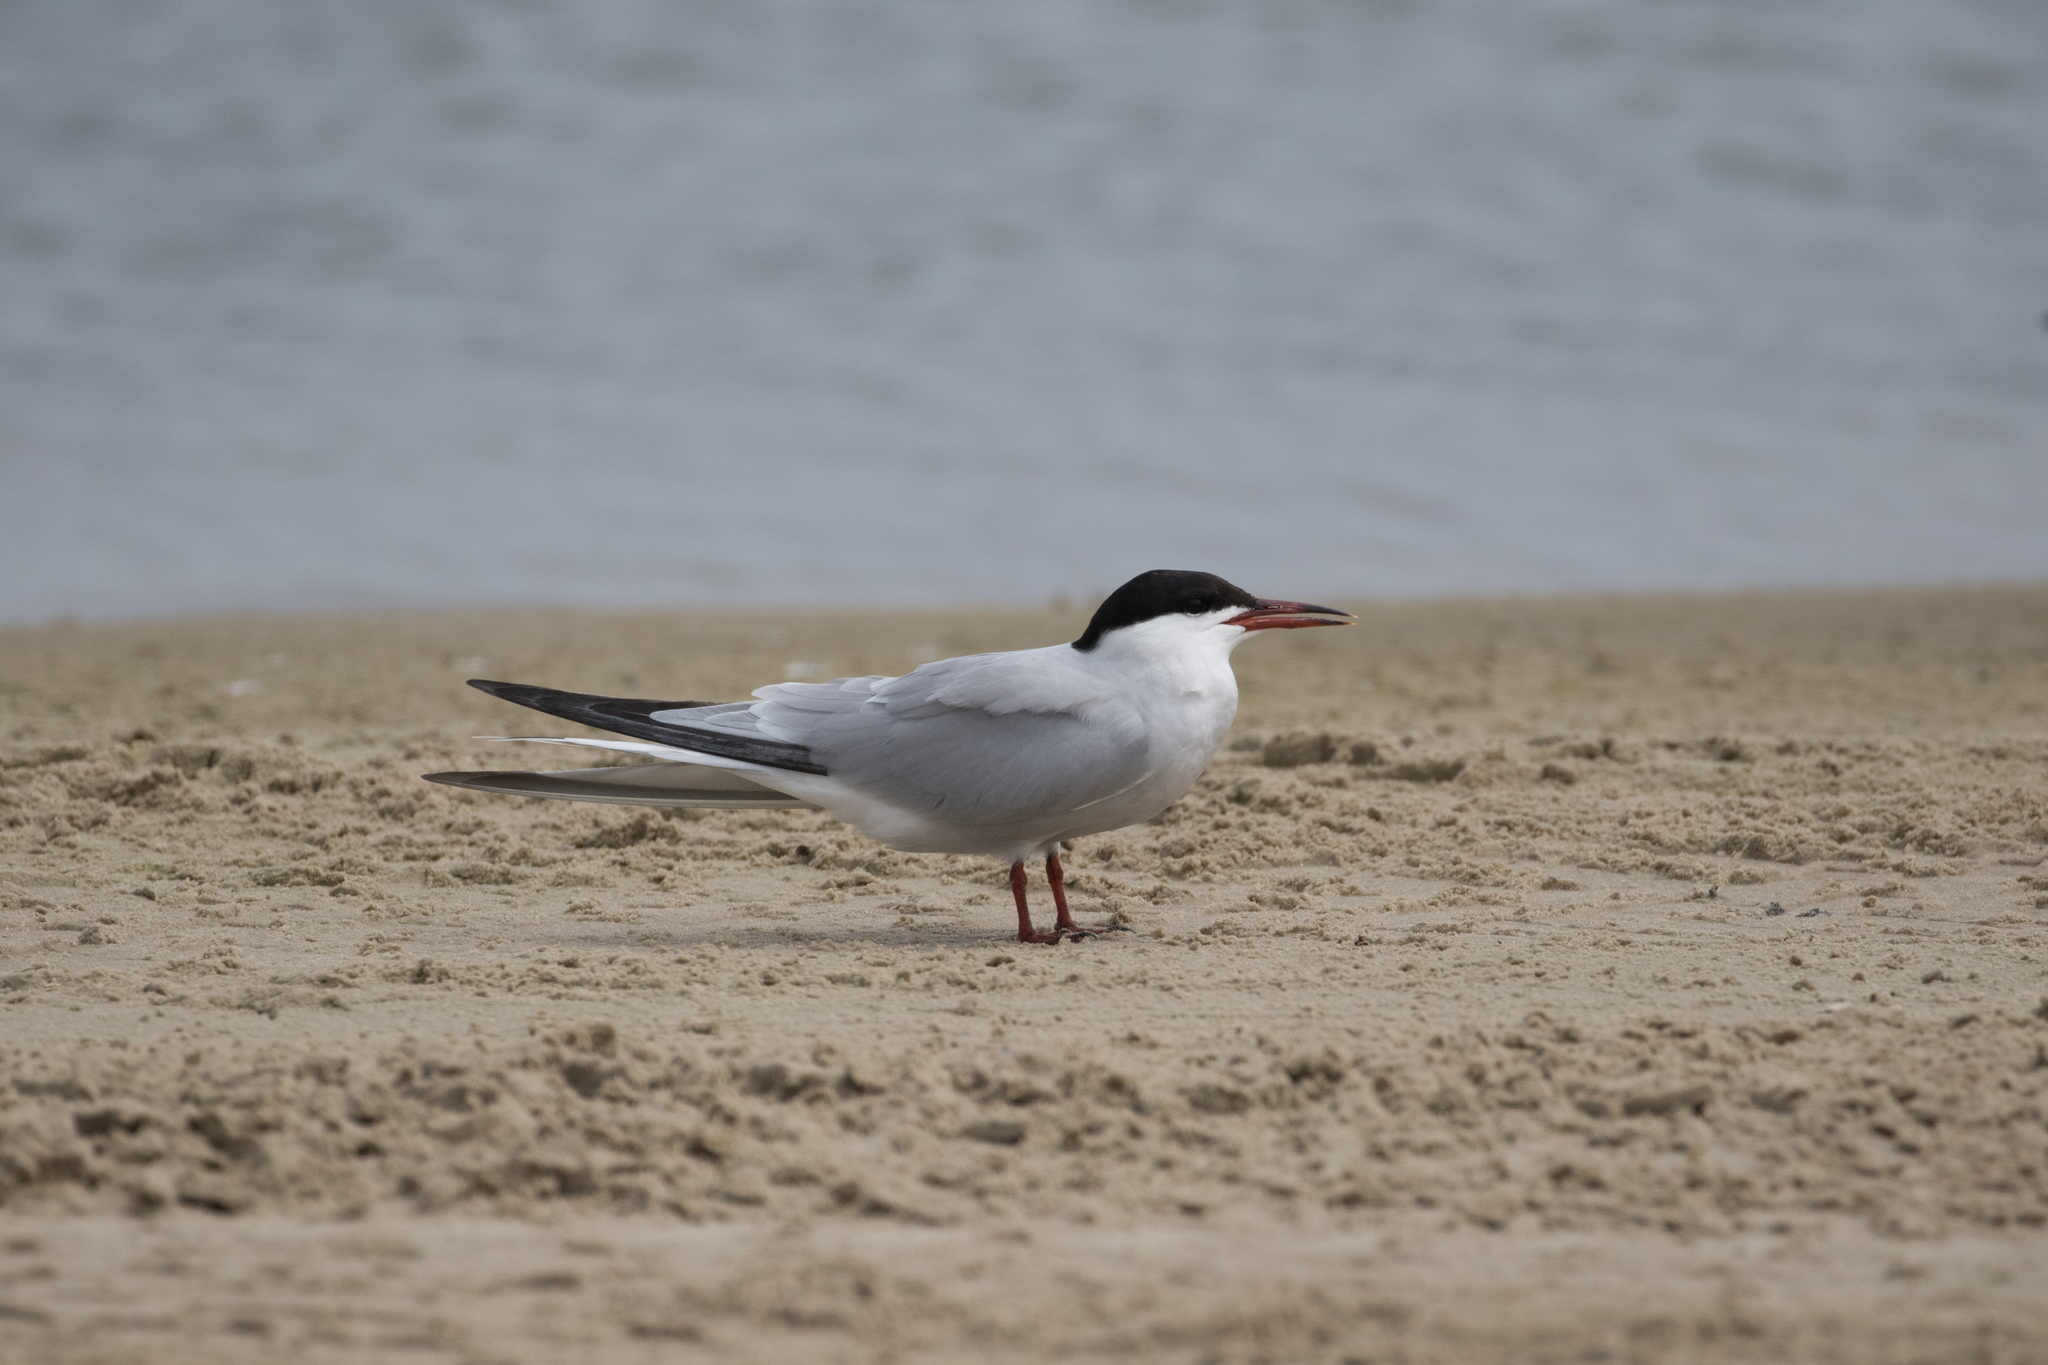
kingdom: Animalia
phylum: Chordata
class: Aves
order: Charadriiformes
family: Laridae
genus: Sterna
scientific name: Sterna hirundo
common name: Common tern
